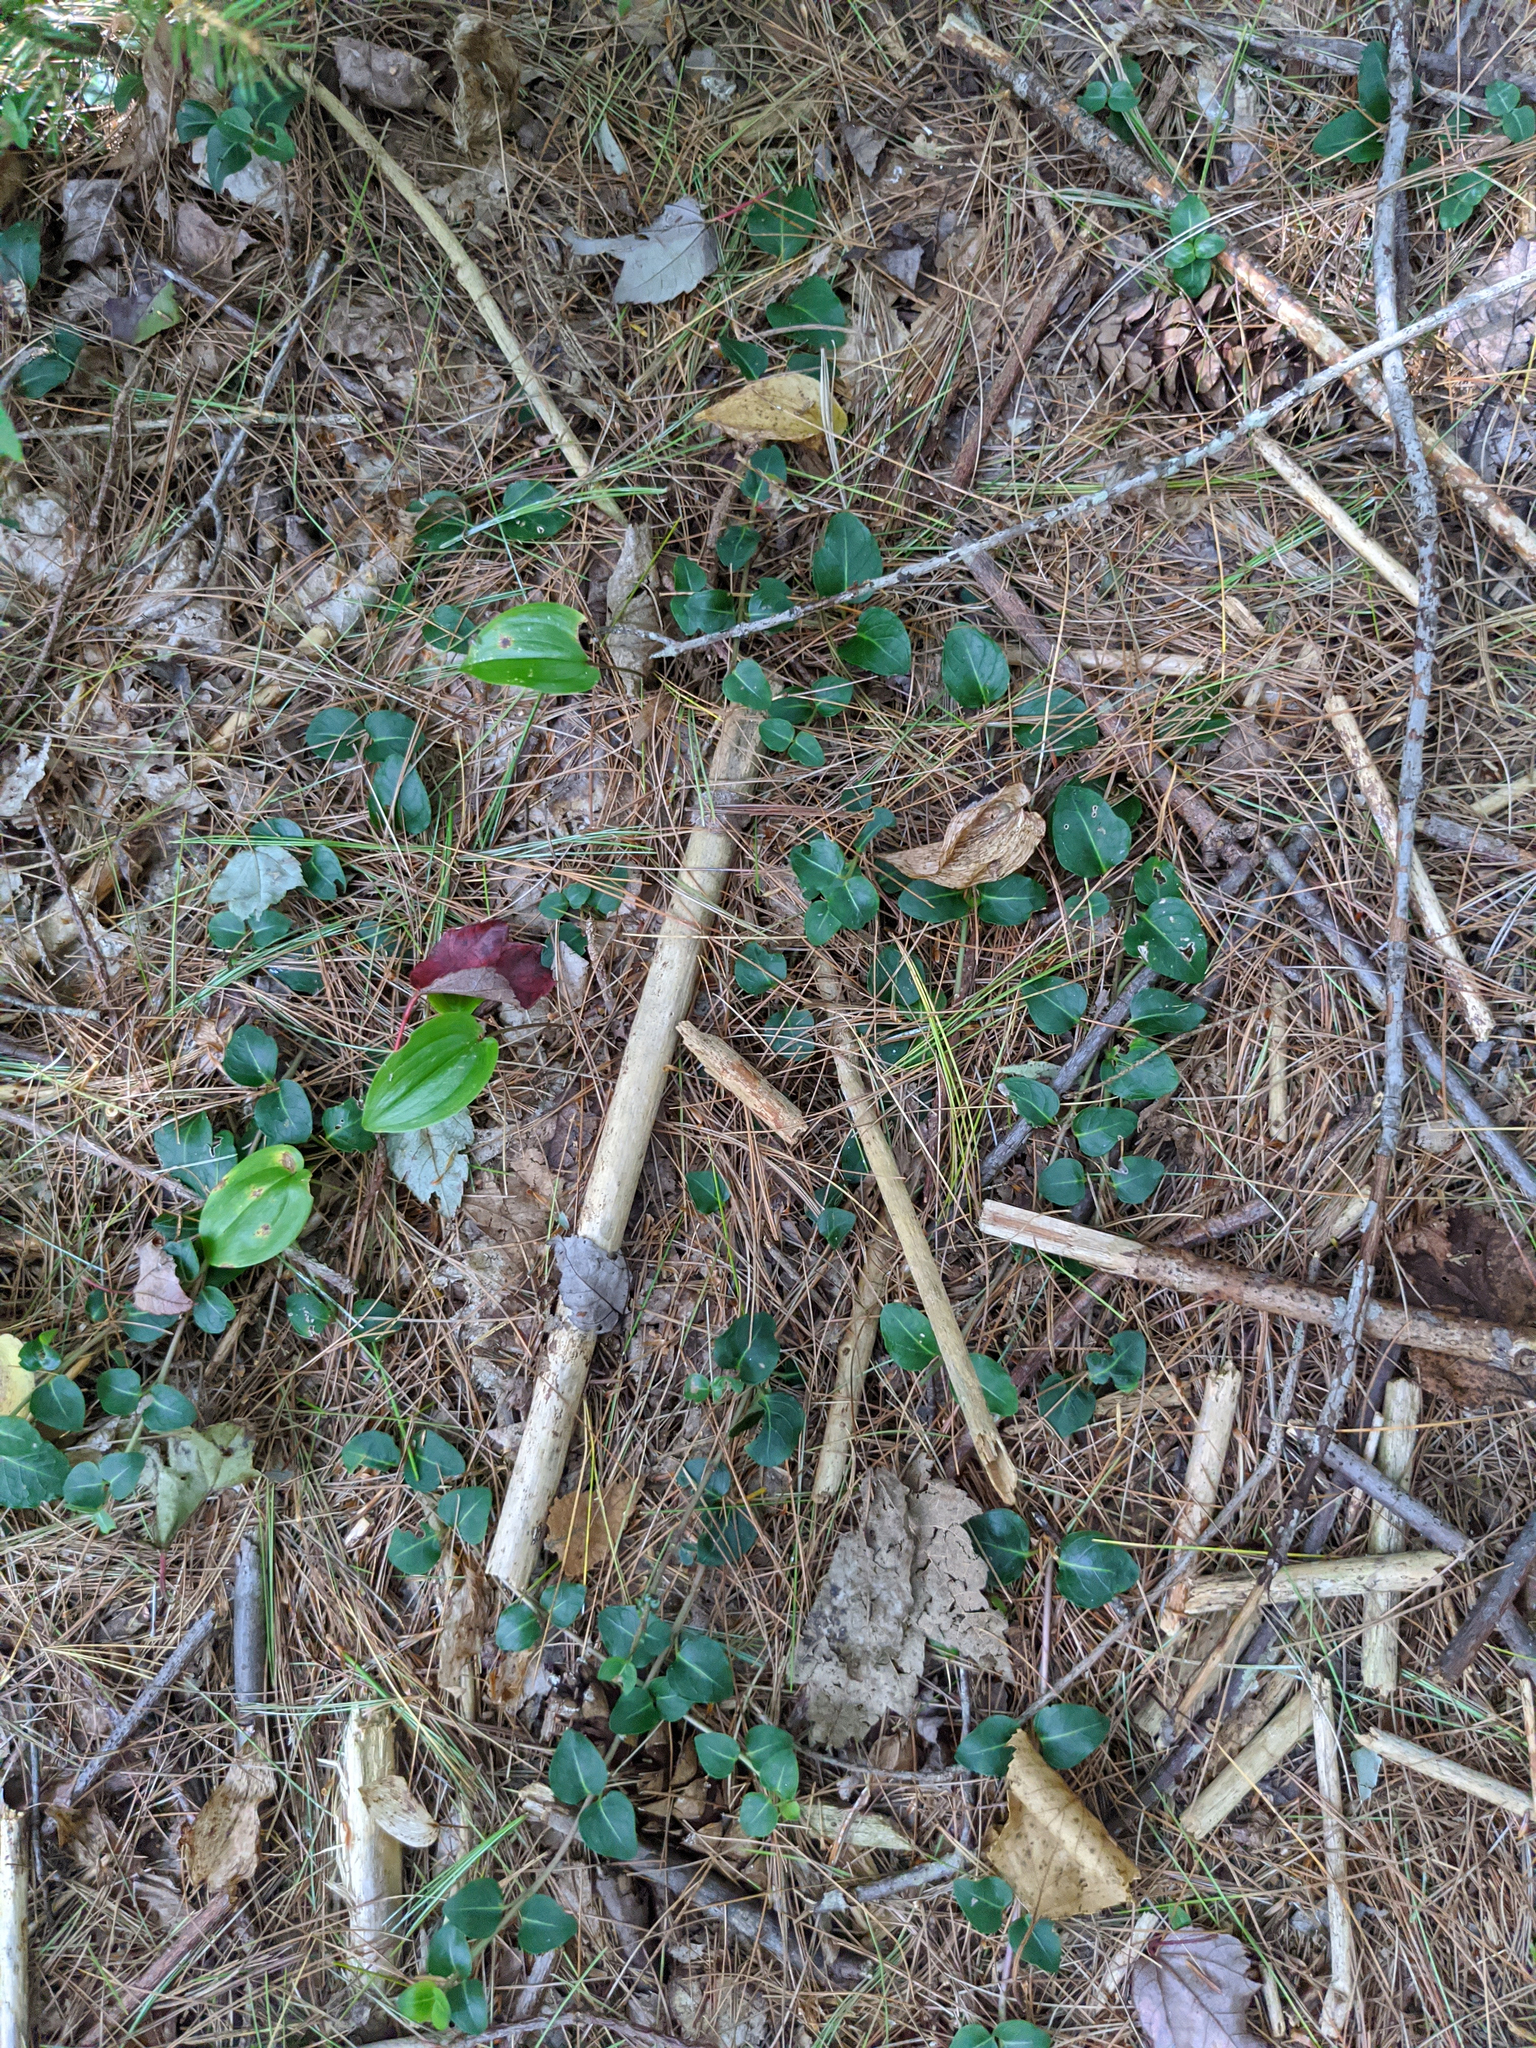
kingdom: Plantae
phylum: Tracheophyta
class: Liliopsida
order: Asparagales
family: Asparagaceae
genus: Maianthemum
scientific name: Maianthemum canadense
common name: False lily-of-the-valley
